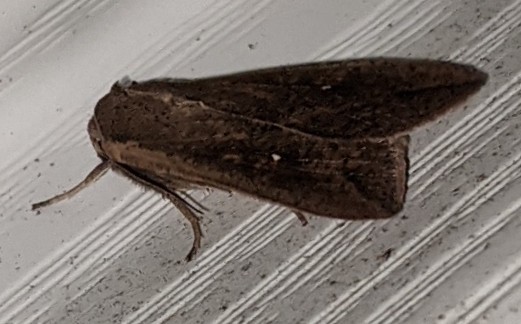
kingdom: Animalia
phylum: Arthropoda
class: Insecta
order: Lepidoptera
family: Noctuidae
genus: Mythimna
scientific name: Mythimna unipuncta
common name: White-speck
